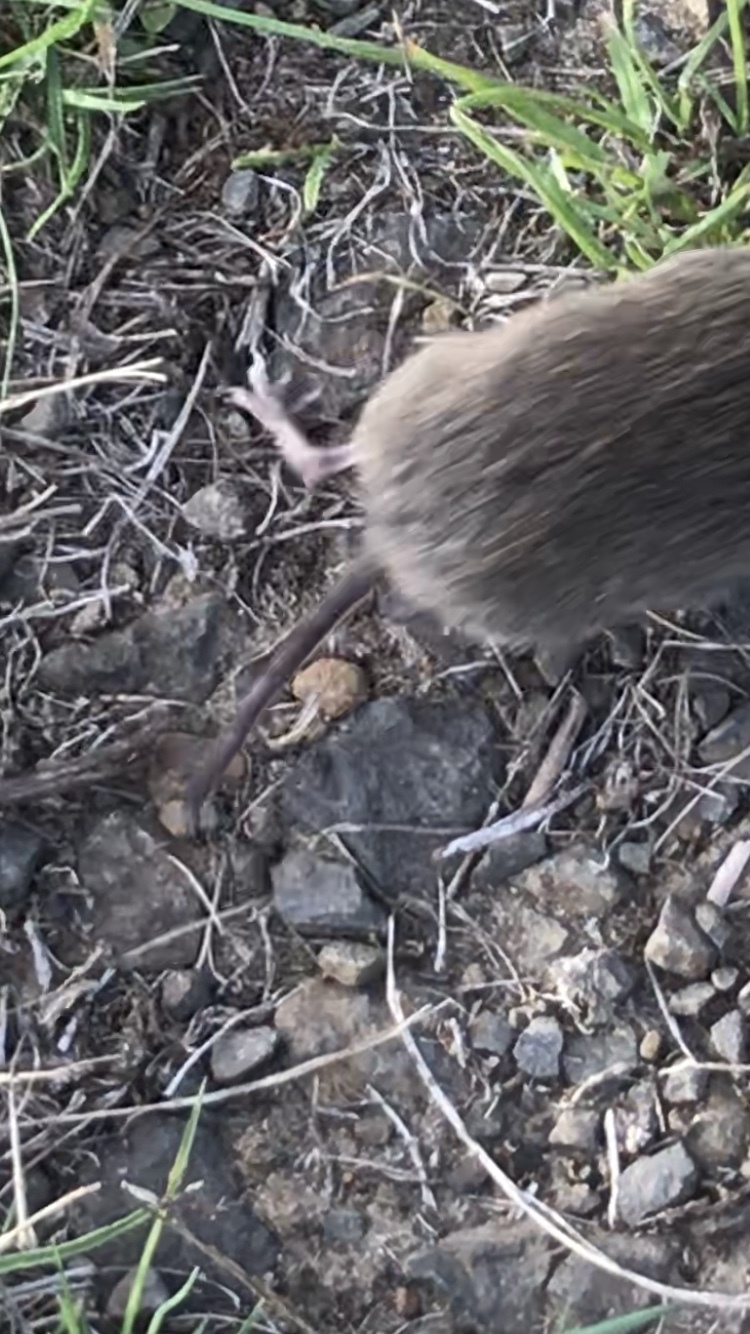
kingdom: Animalia
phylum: Chordata
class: Mammalia
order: Rodentia
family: Cricetidae
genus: Microtus
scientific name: Microtus oregoni
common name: Creeping vole
